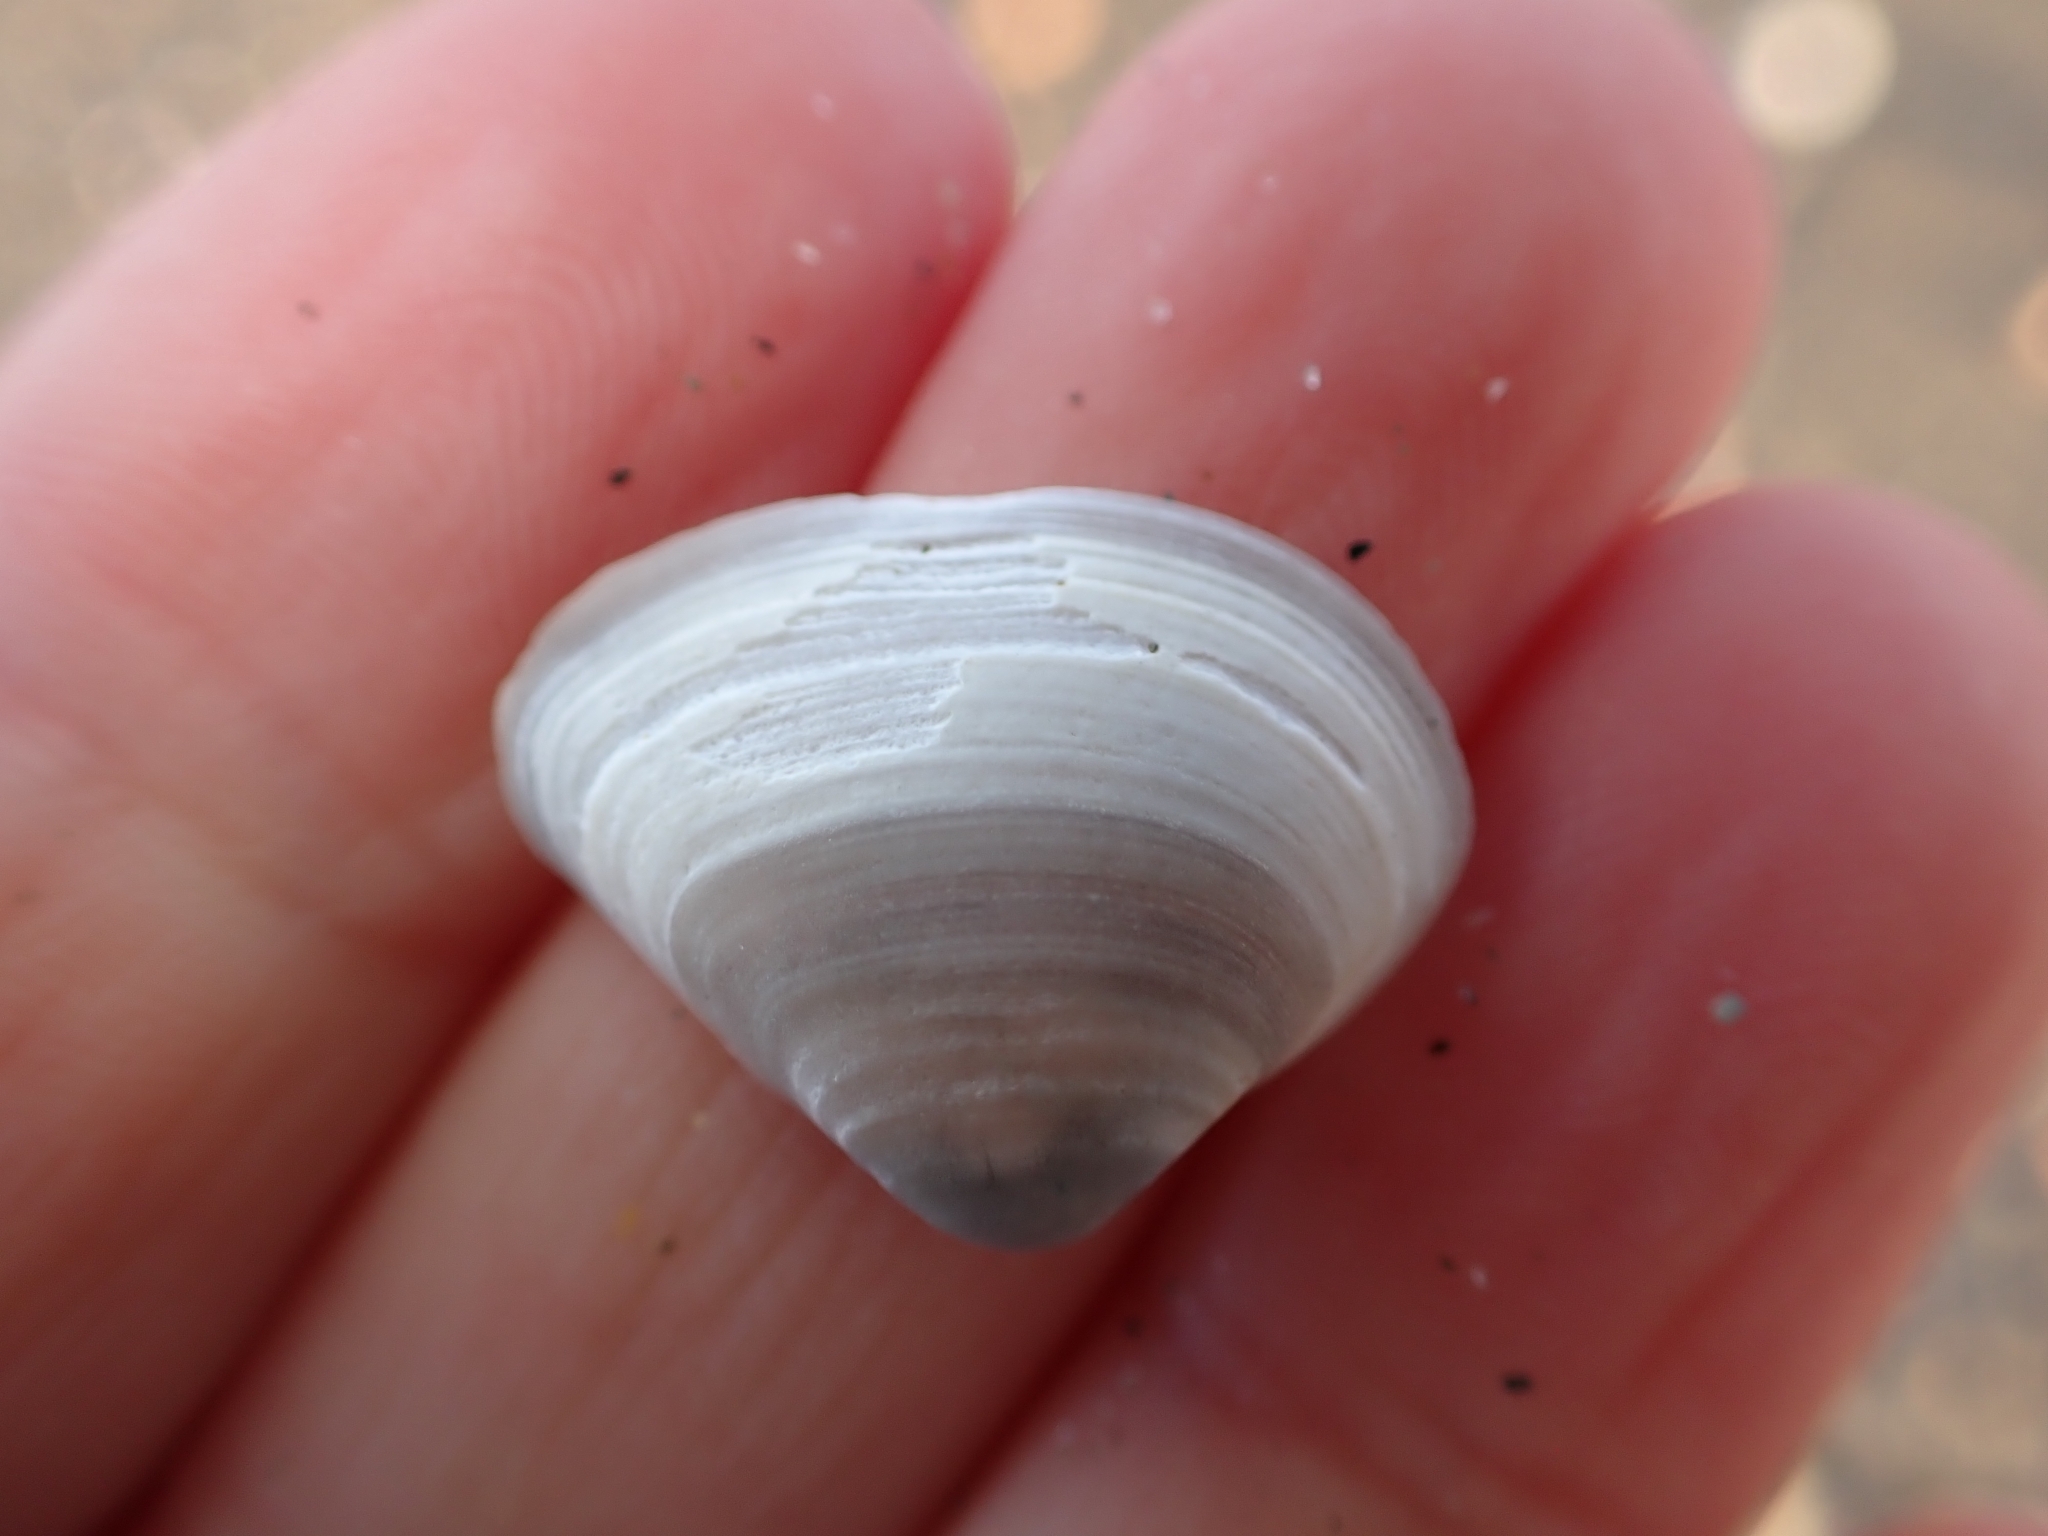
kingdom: Animalia
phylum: Mollusca
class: Bivalvia
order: Venerida
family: Mactridae
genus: Spisula
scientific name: Spisula subtruncata
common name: Cut trough shell
